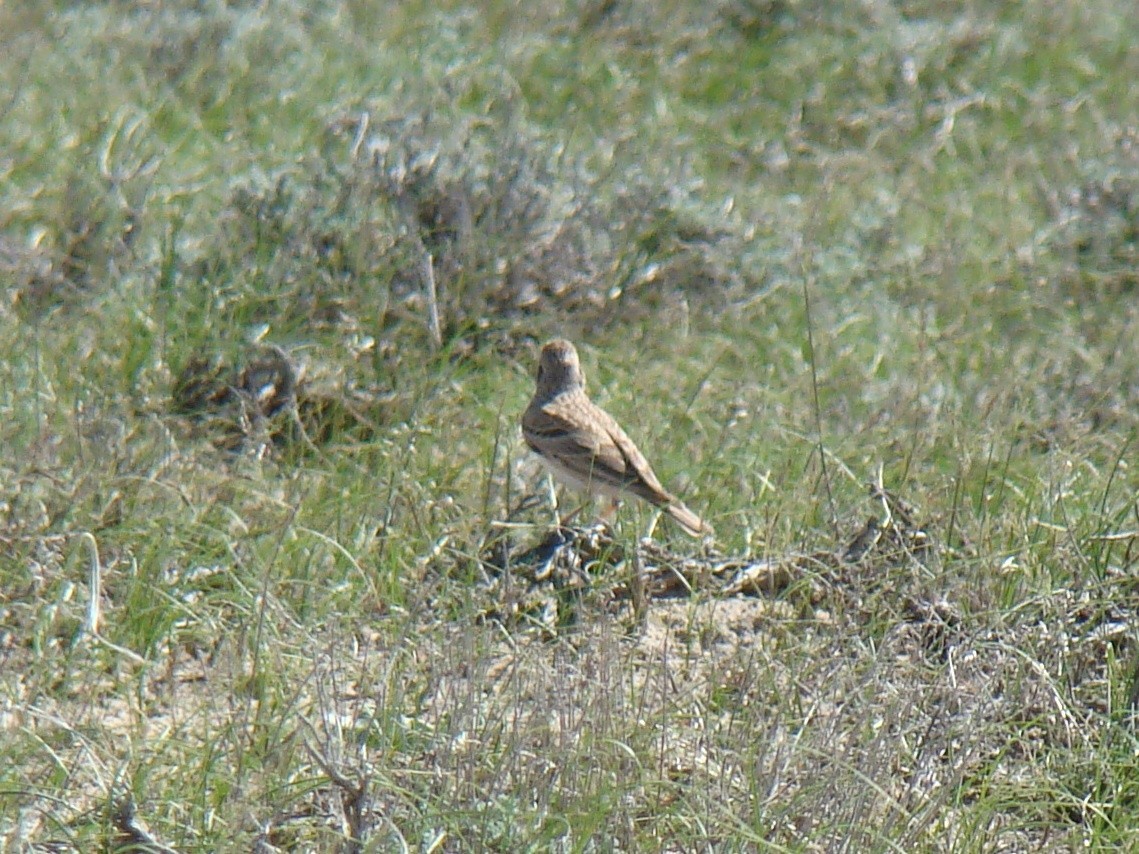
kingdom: Animalia
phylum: Chordata
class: Aves
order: Passeriformes
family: Alaudidae
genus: Calandrella
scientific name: Calandrella brachydactyla
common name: Greater short-toed lark
